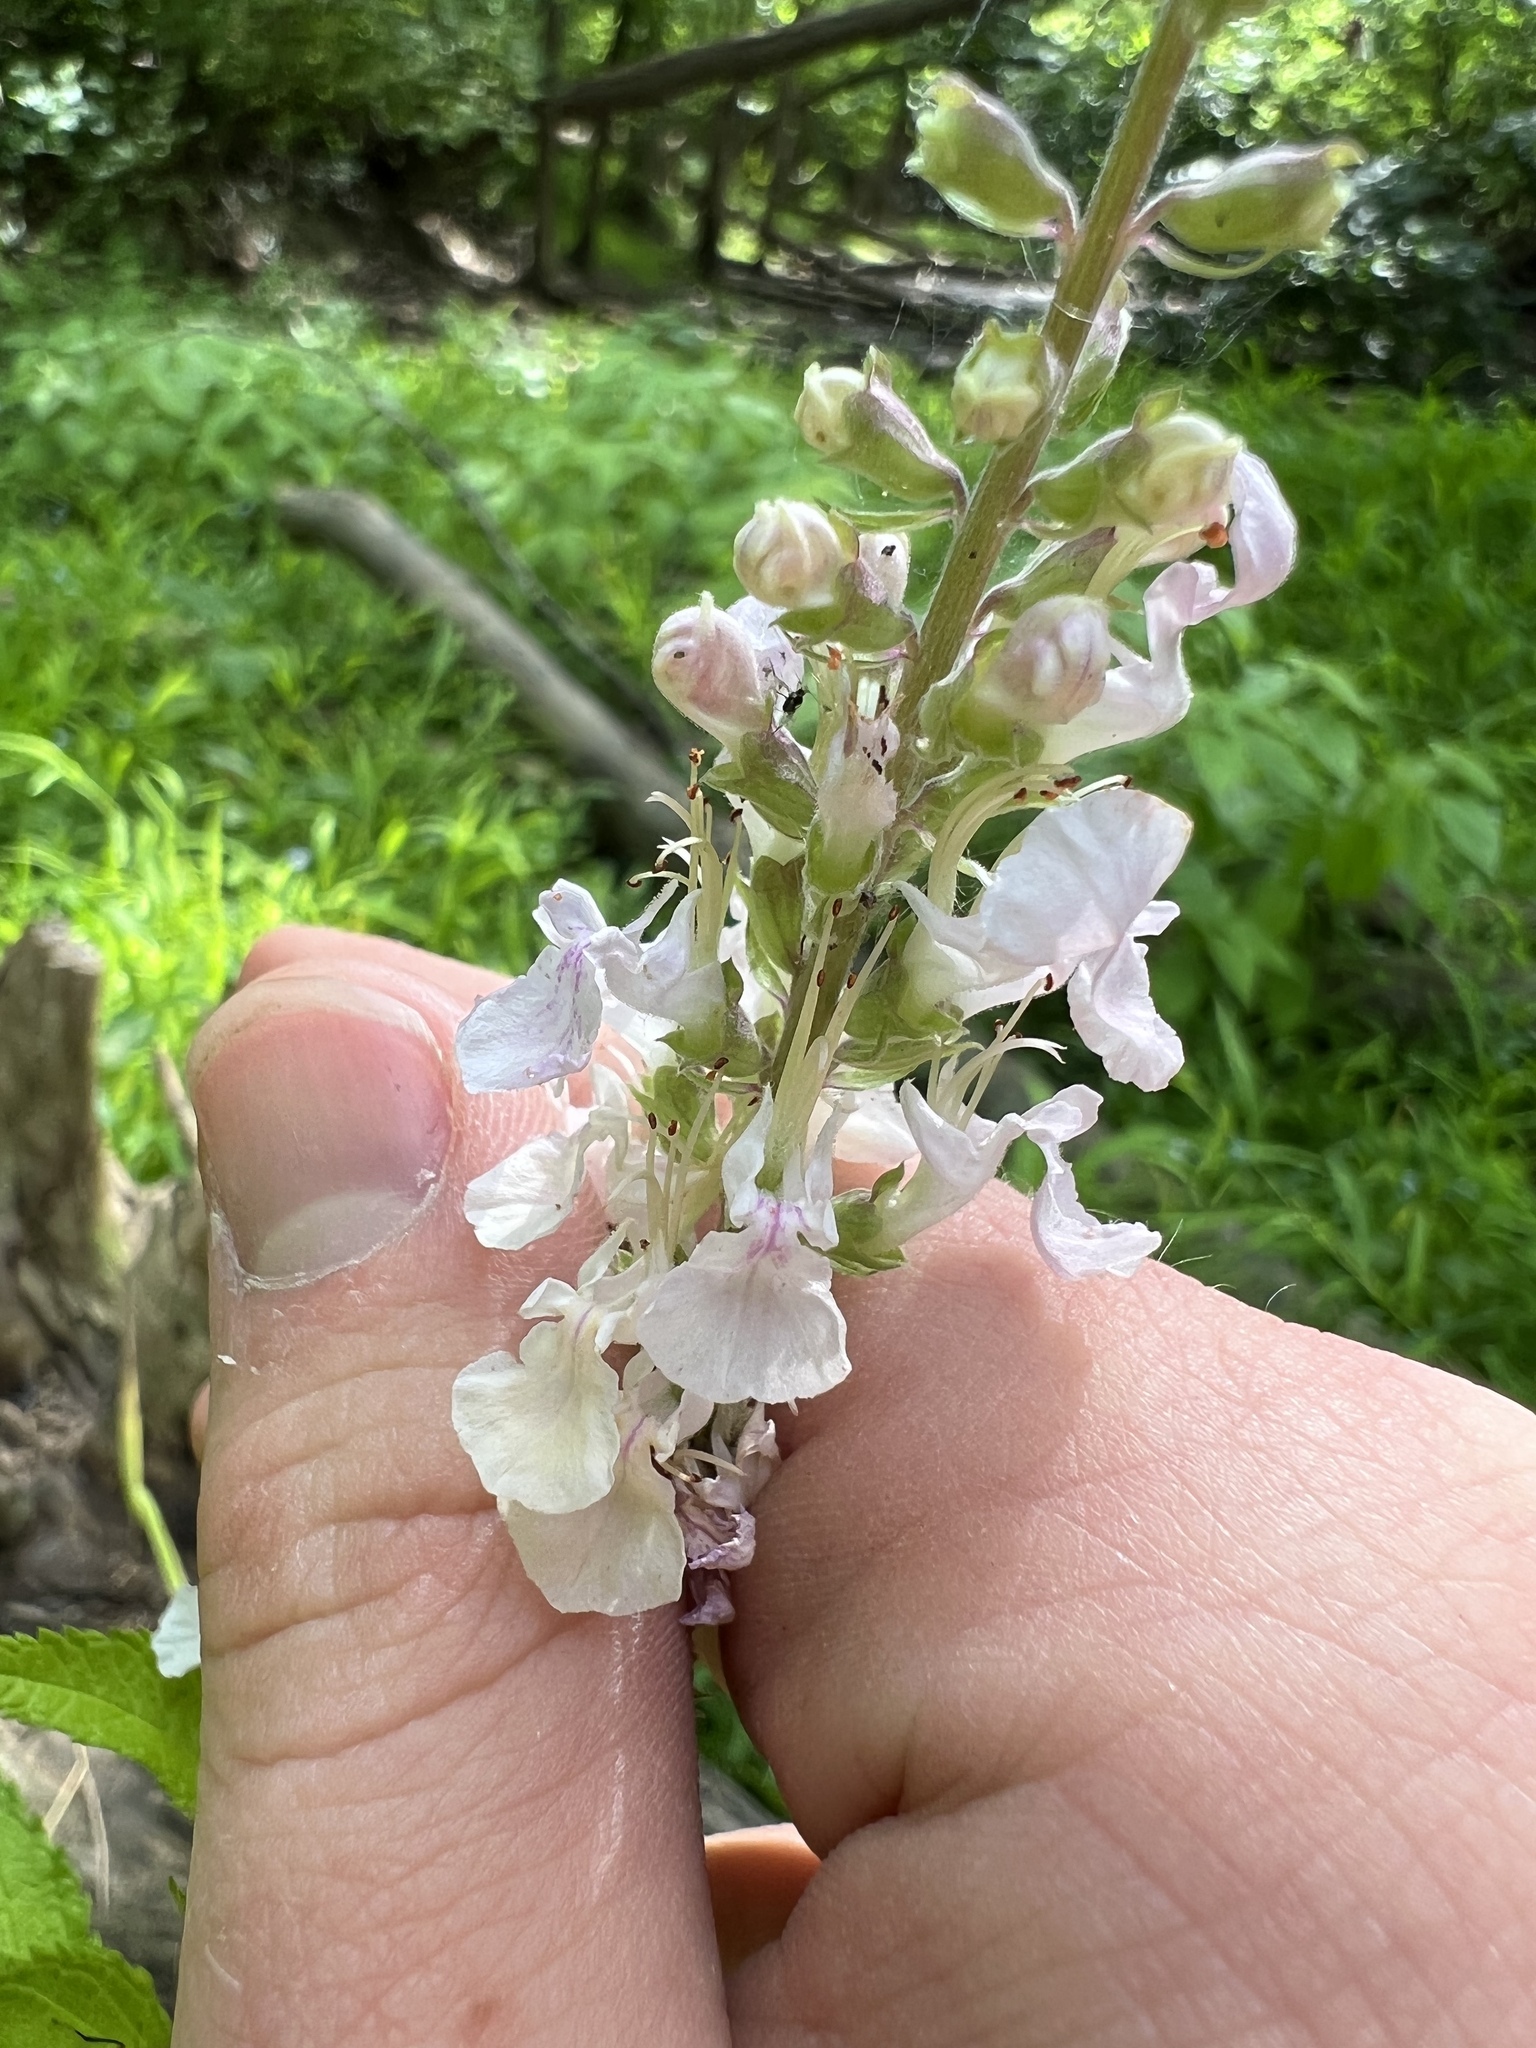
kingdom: Plantae
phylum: Tracheophyta
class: Magnoliopsida
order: Lamiales
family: Lamiaceae
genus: Teucrium
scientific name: Teucrium canadense
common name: American germander
